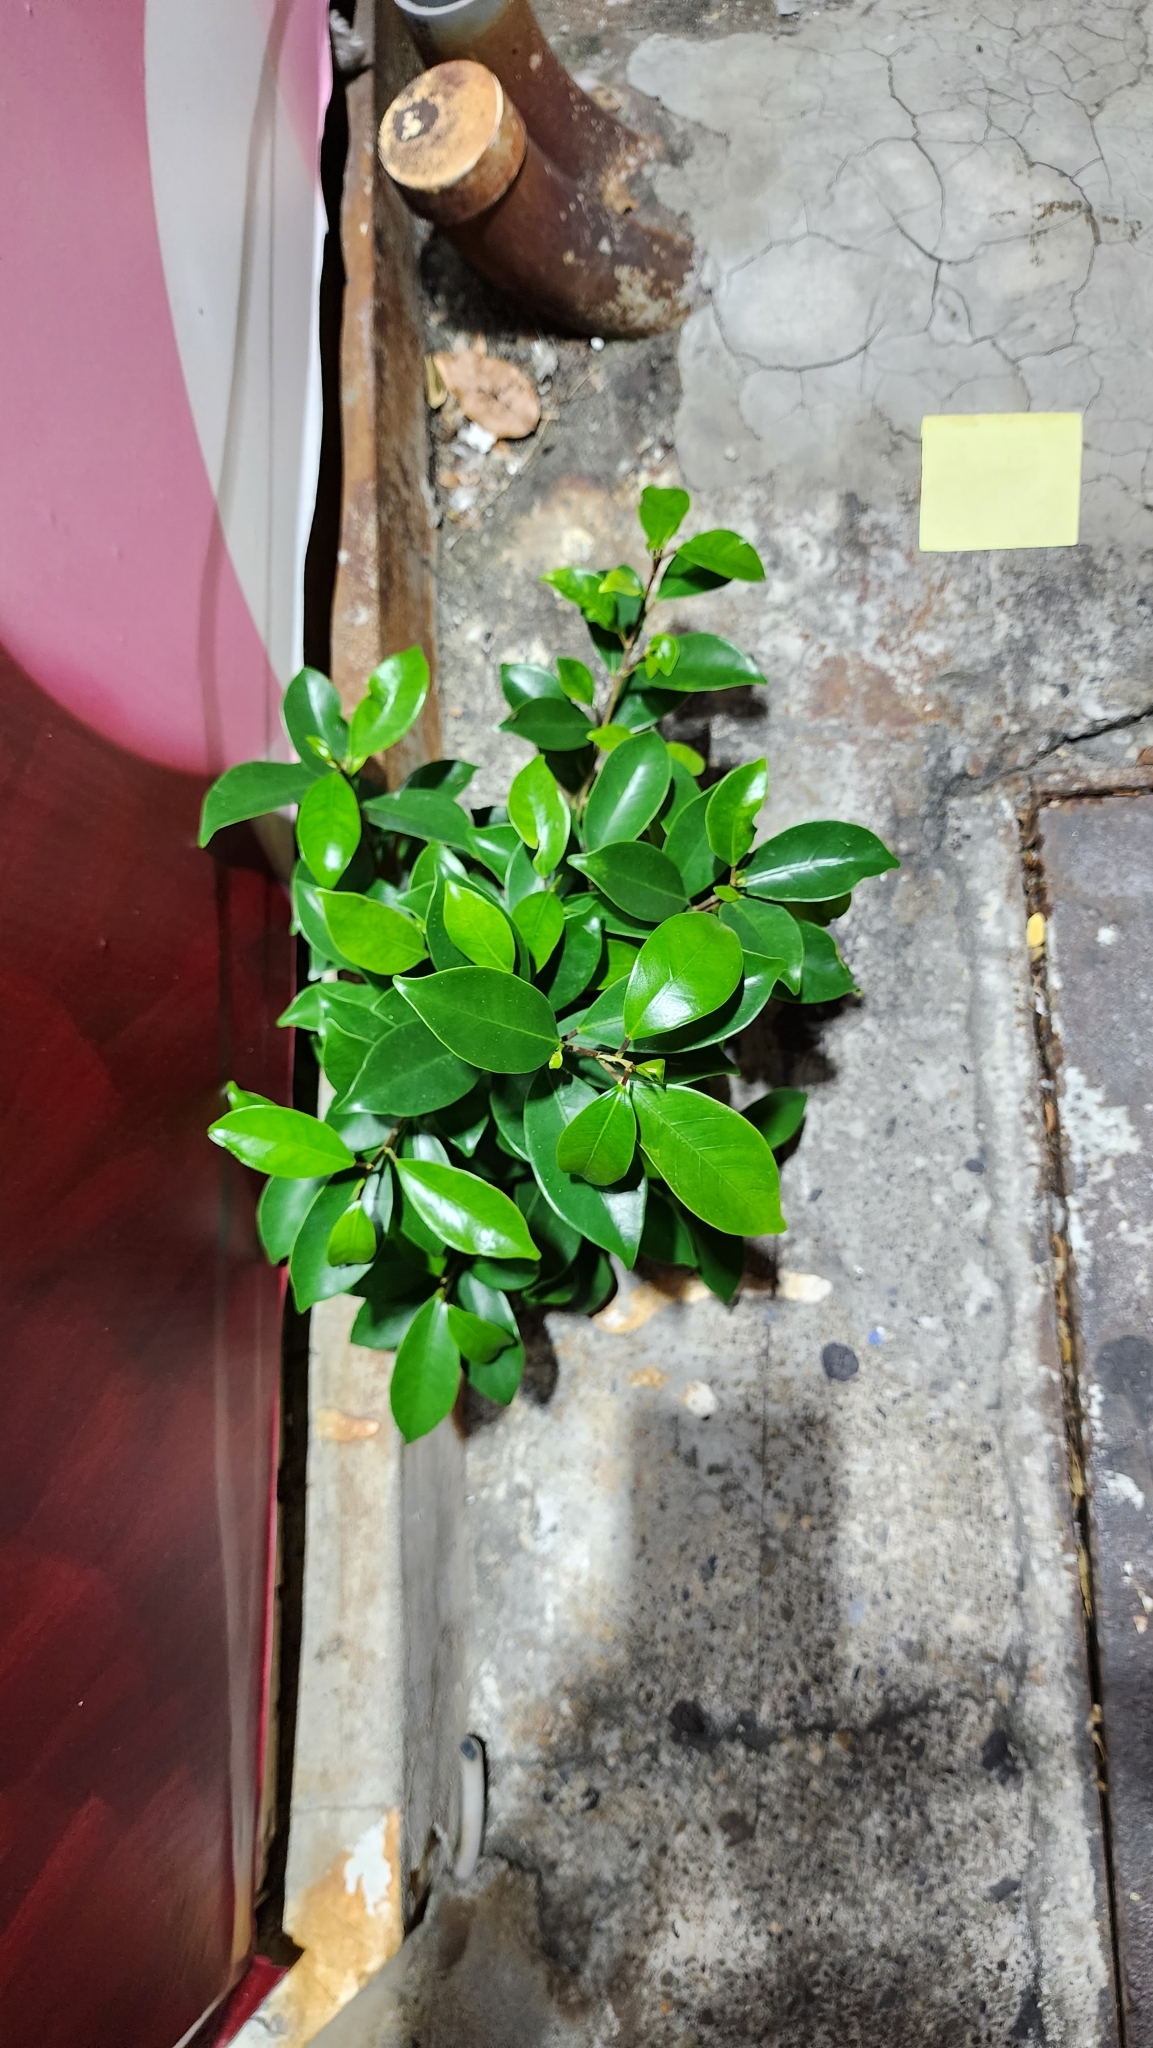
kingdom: Plantae
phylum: Tracheophyta
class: Magnoliopsida
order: Rosales
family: Moraceae
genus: Ficus
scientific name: Ficus microcarpa
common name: Chinese banyan
